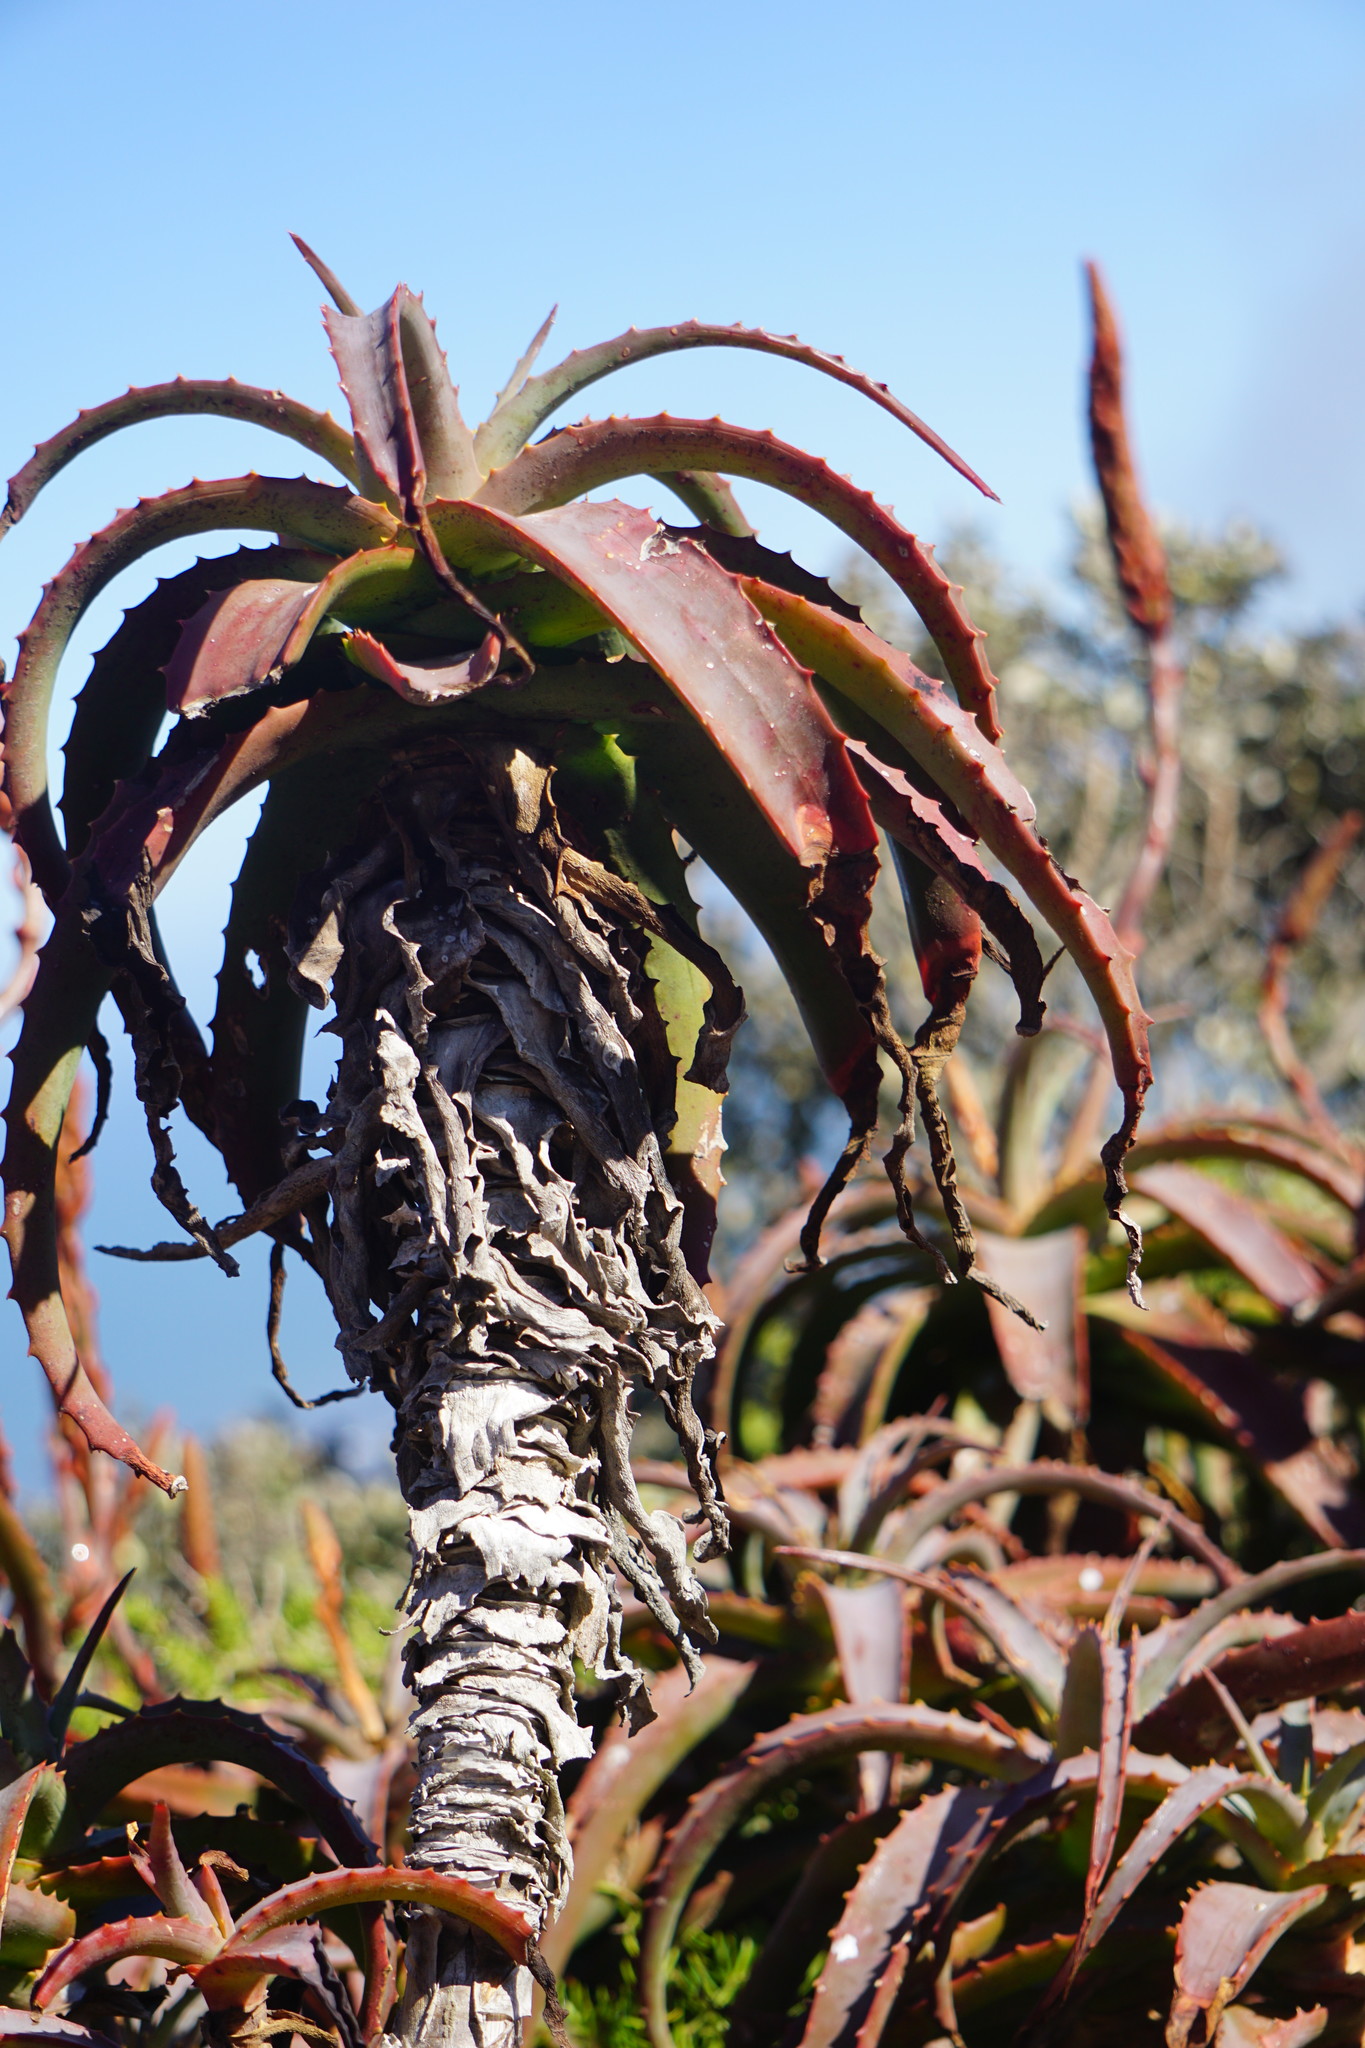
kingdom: Plantae
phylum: Tracheophyta
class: Liliopsida
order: Asparagales
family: Asphodelaceae
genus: Aloe
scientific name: Aloe arborescens
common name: Candelabra aloe
